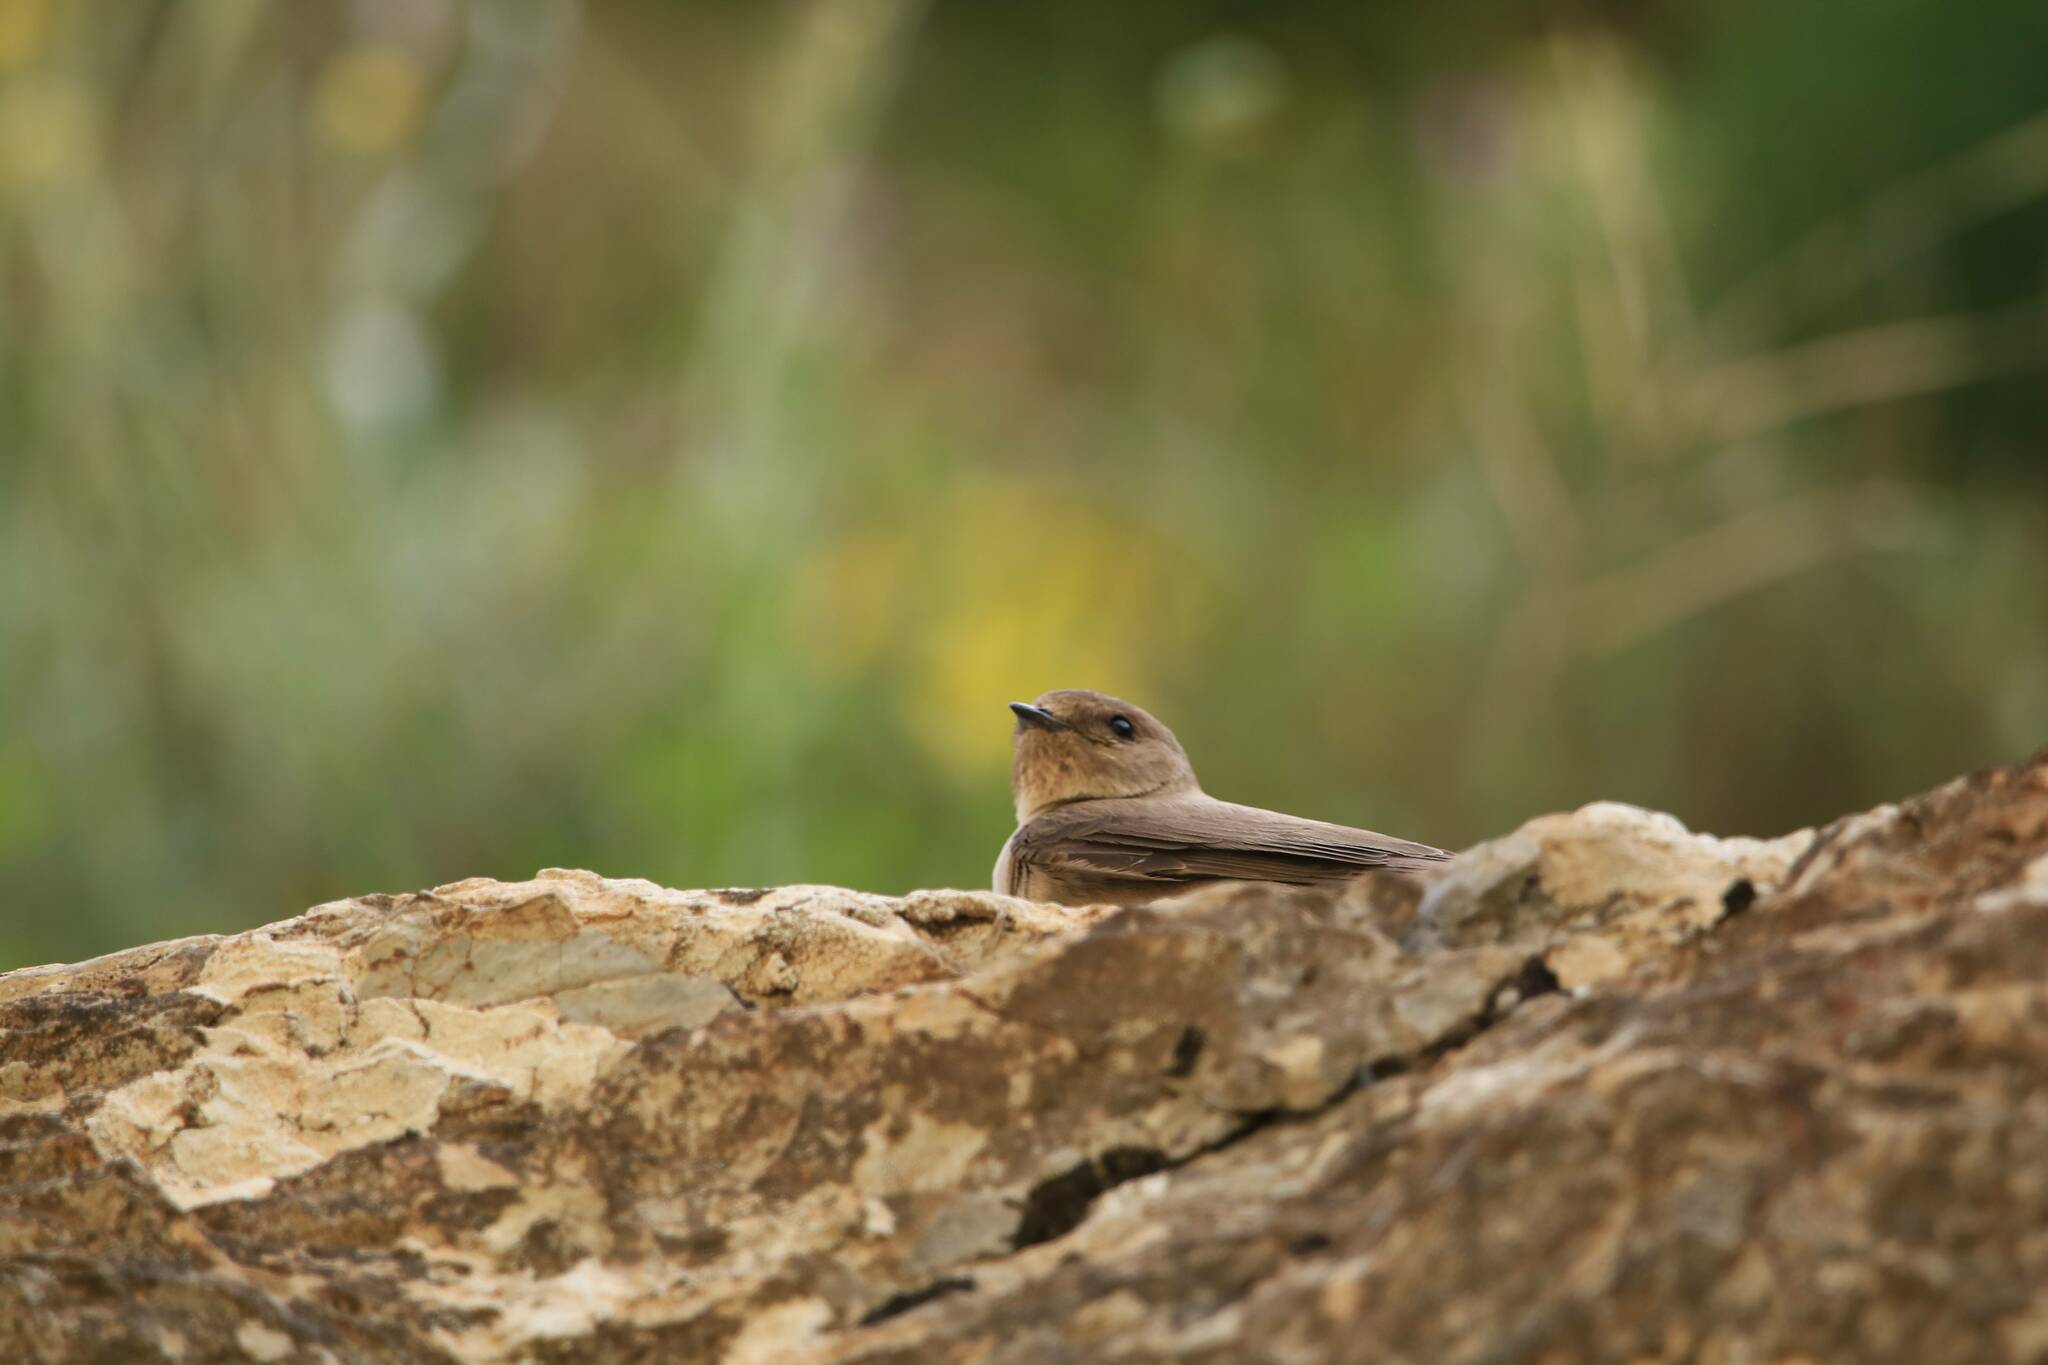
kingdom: Animalia
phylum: Chordata
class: Aves
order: Passeriformes
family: Hirundinidae
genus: Ptyonoprogne
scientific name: Ptyonoprogne rupestris
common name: Eurasian crag martin
